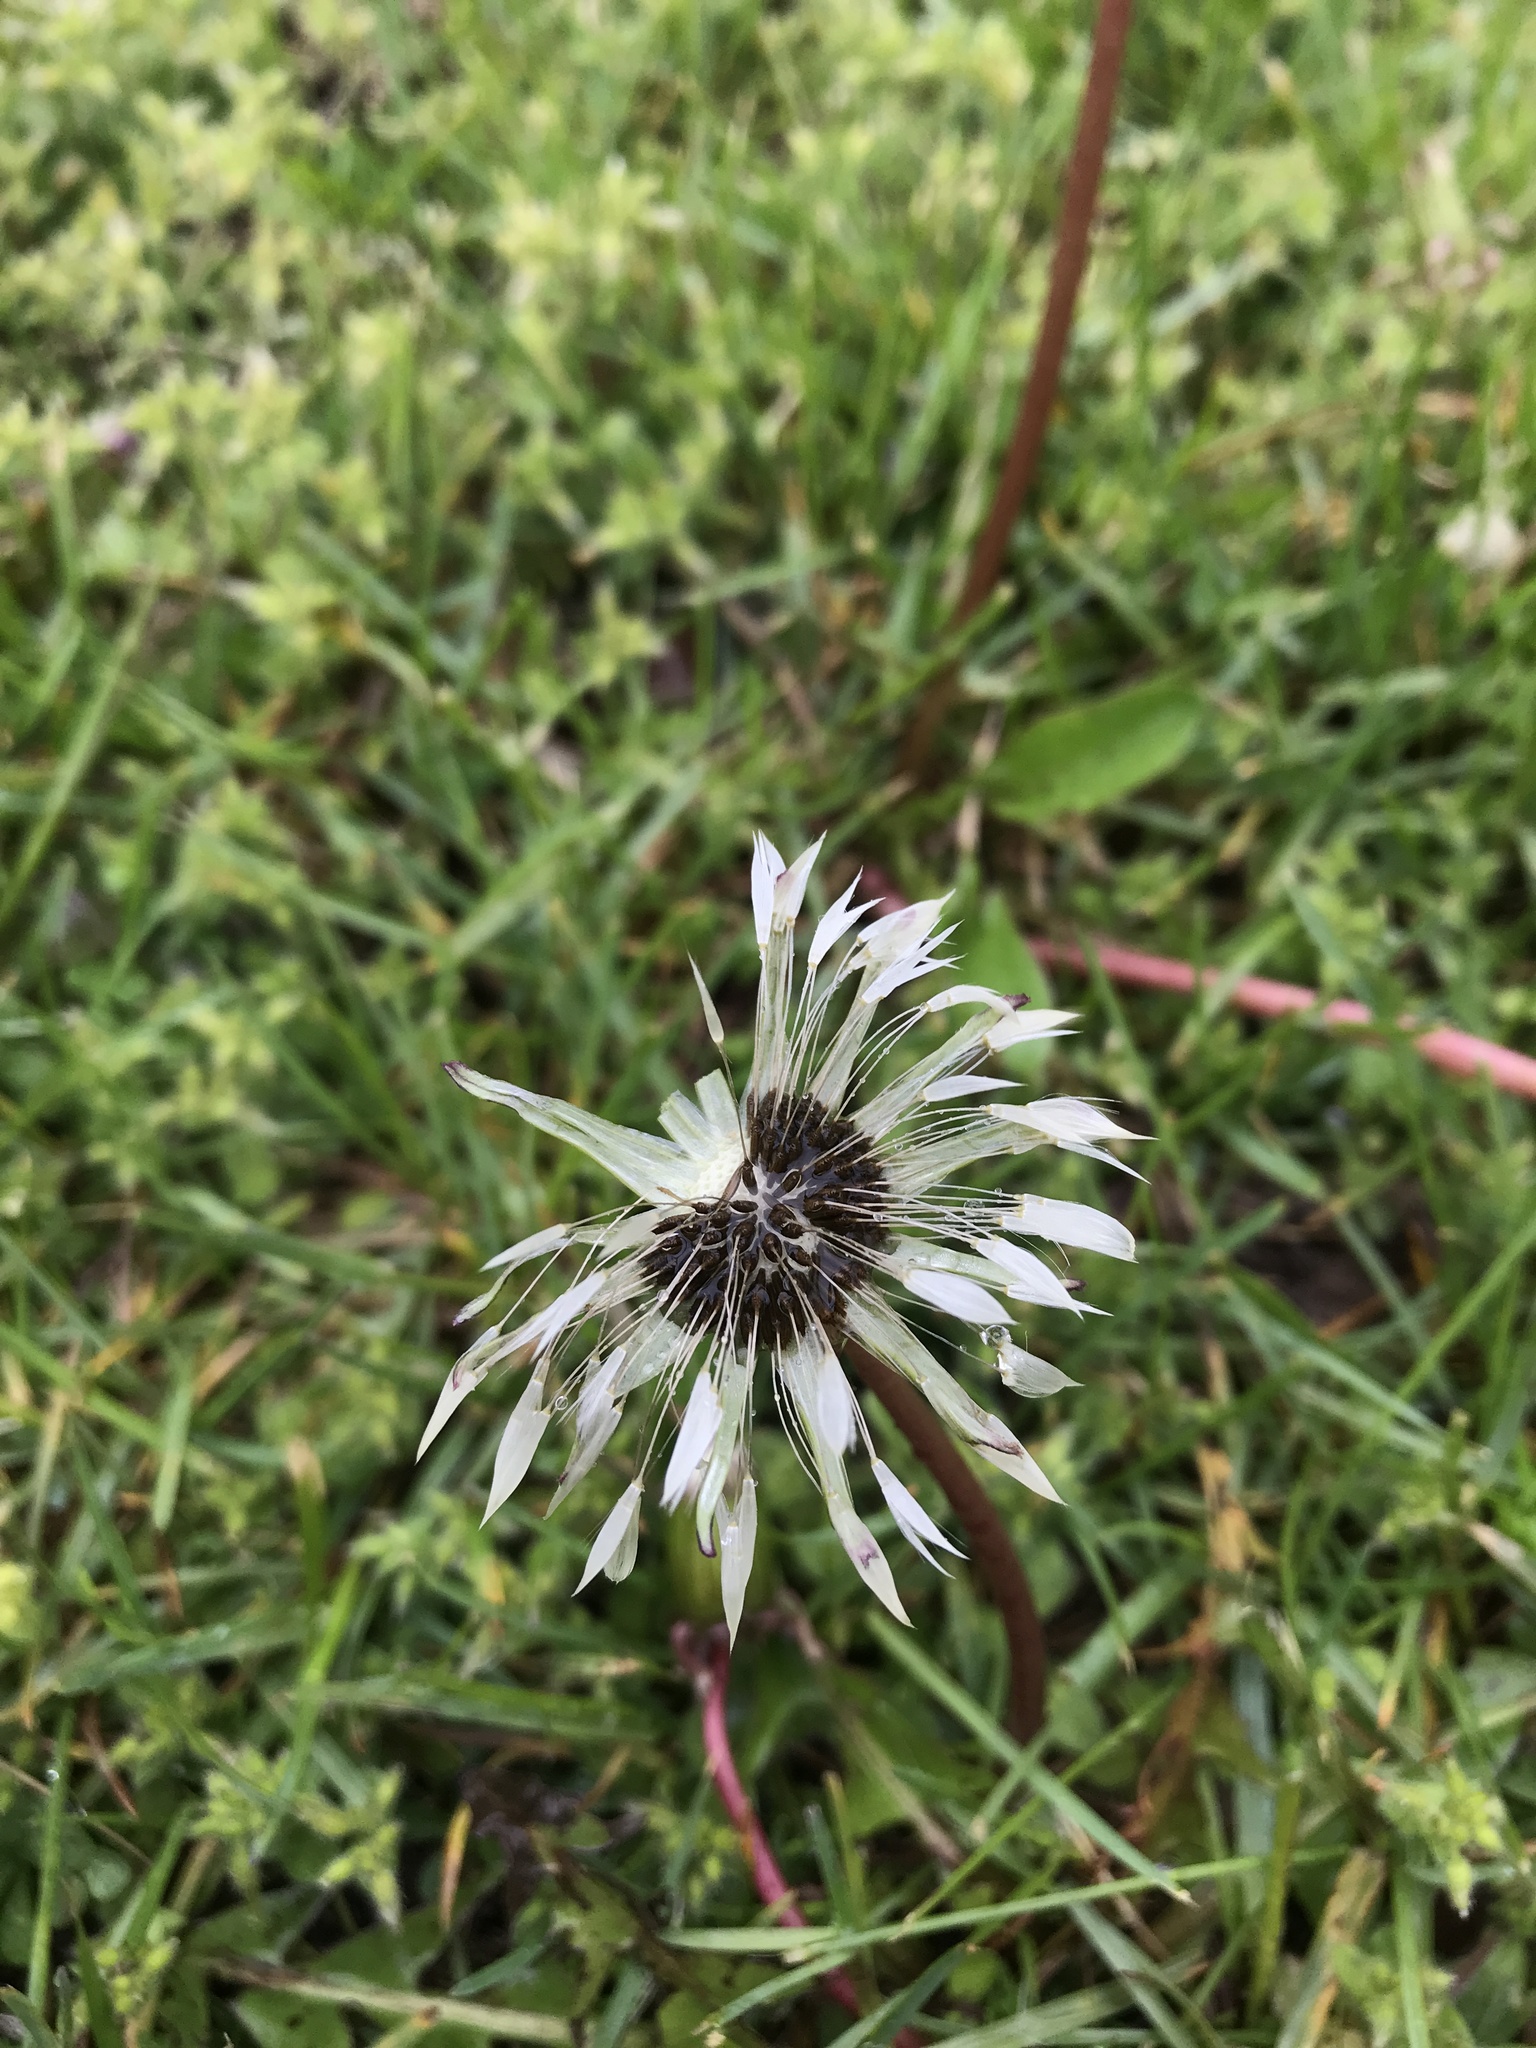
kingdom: Plantae
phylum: Tracheophyta
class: Magnoliopsida
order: Asterales
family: Asteraceae
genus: Taraxacum
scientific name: Taraxacum officinale
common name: Common dandelion
